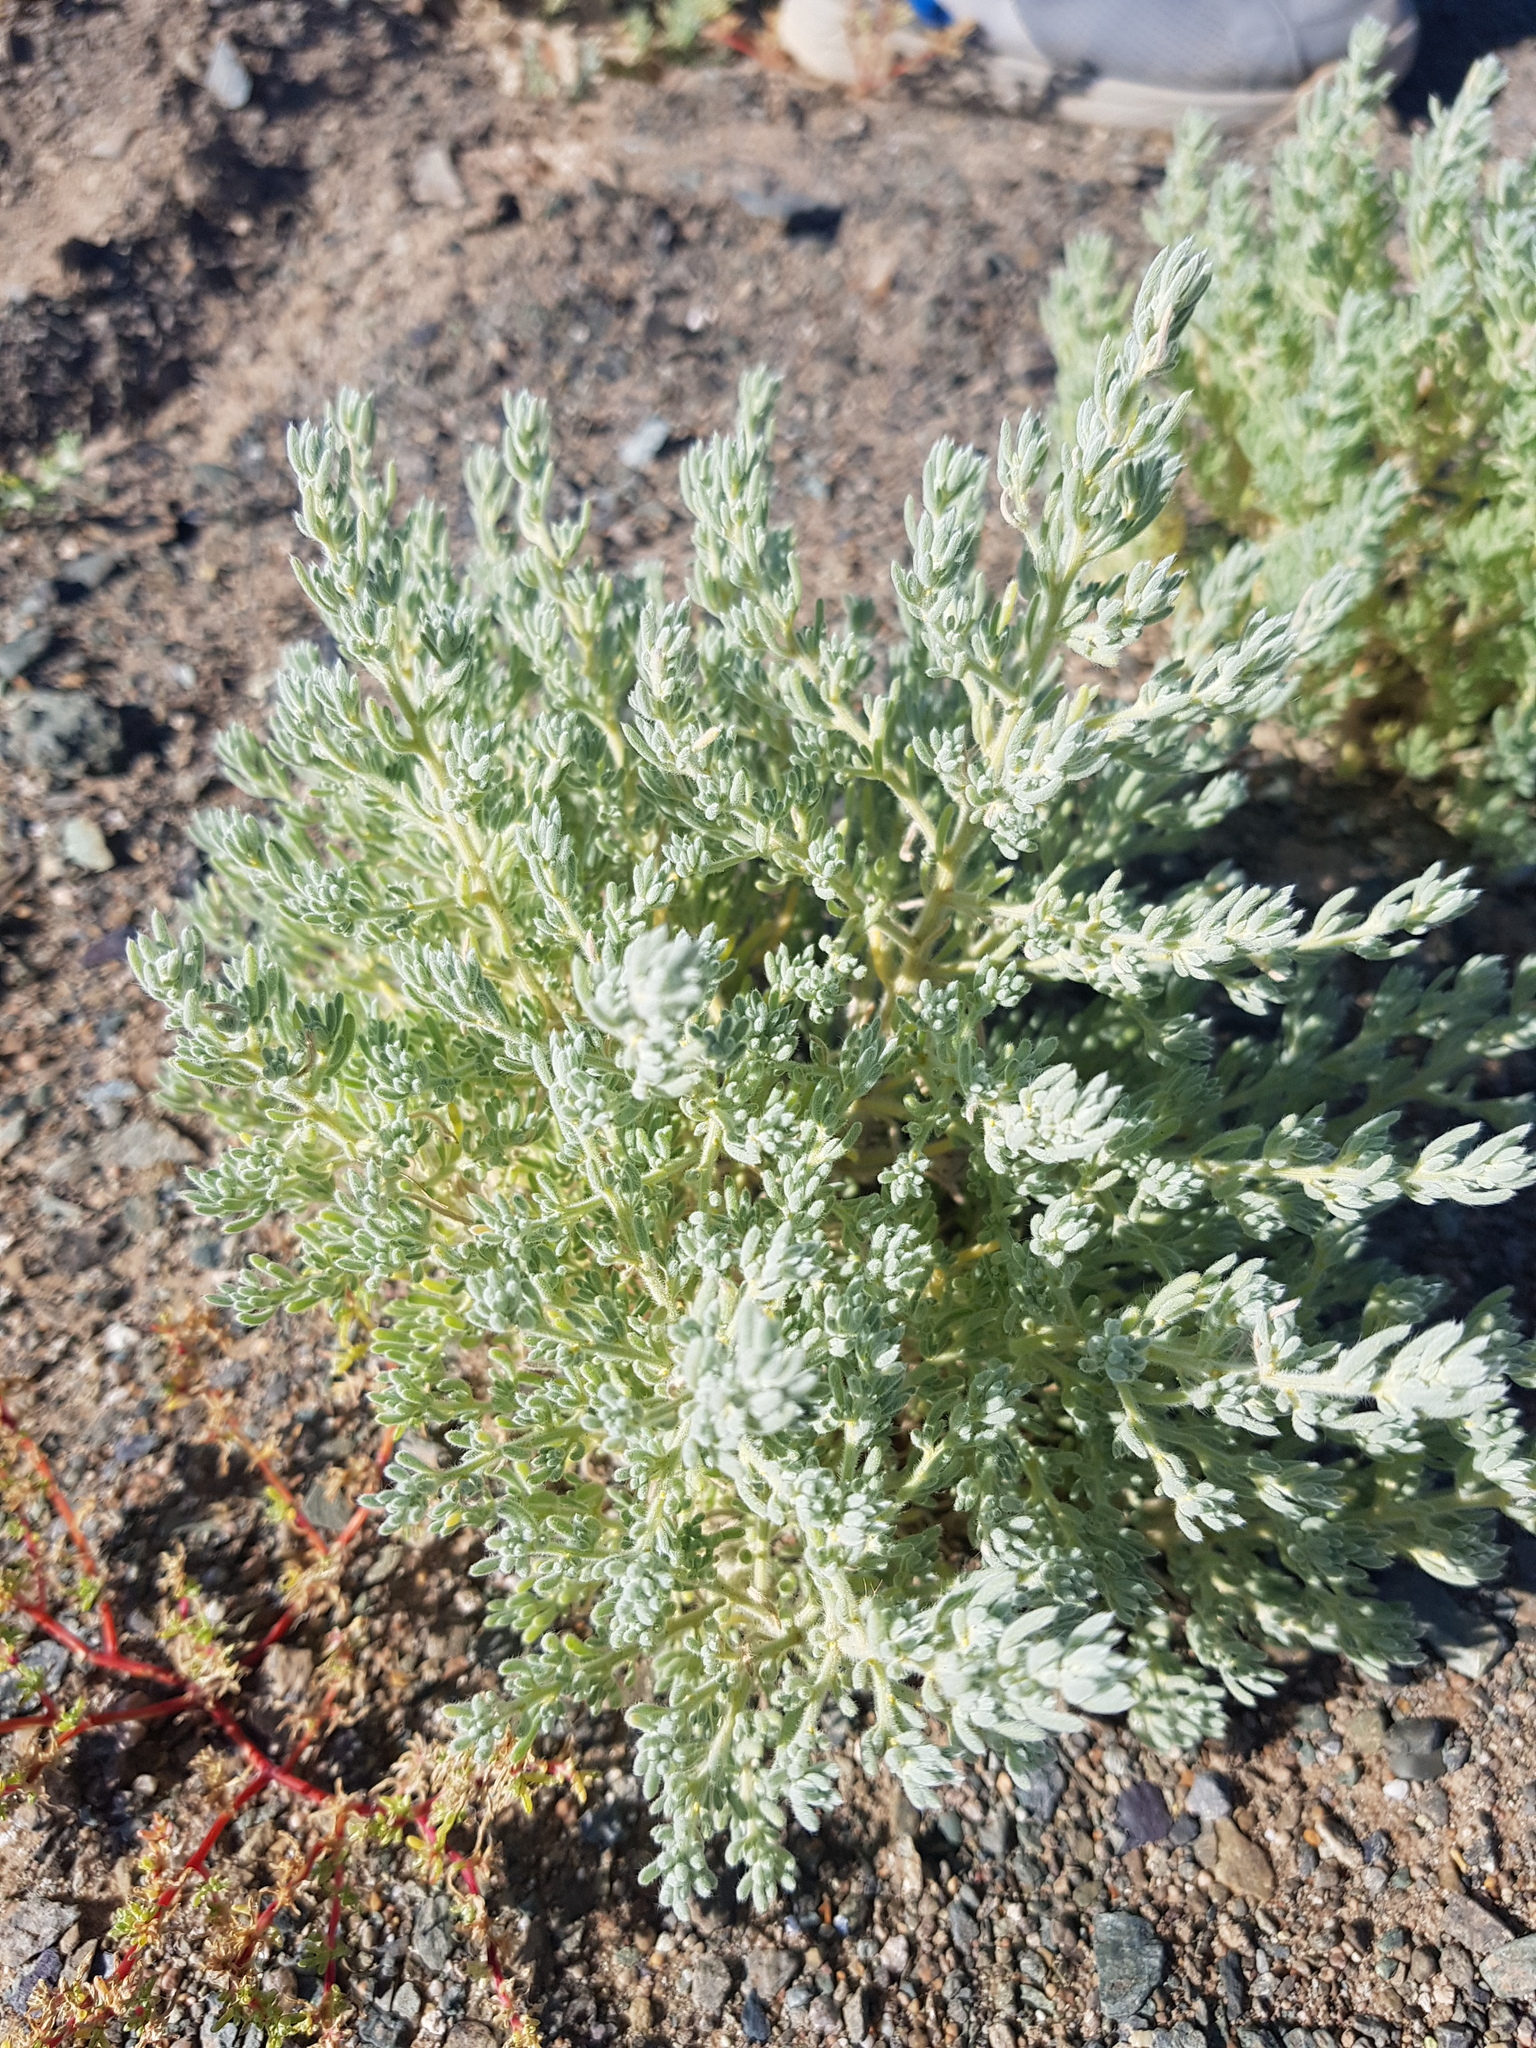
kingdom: Plantae
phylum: Tracheophyta
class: Magnoliopsida
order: Caryophyllales
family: Amaranthaceae
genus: Halogeton
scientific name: Halogeton glomeratus
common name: Saltlover
